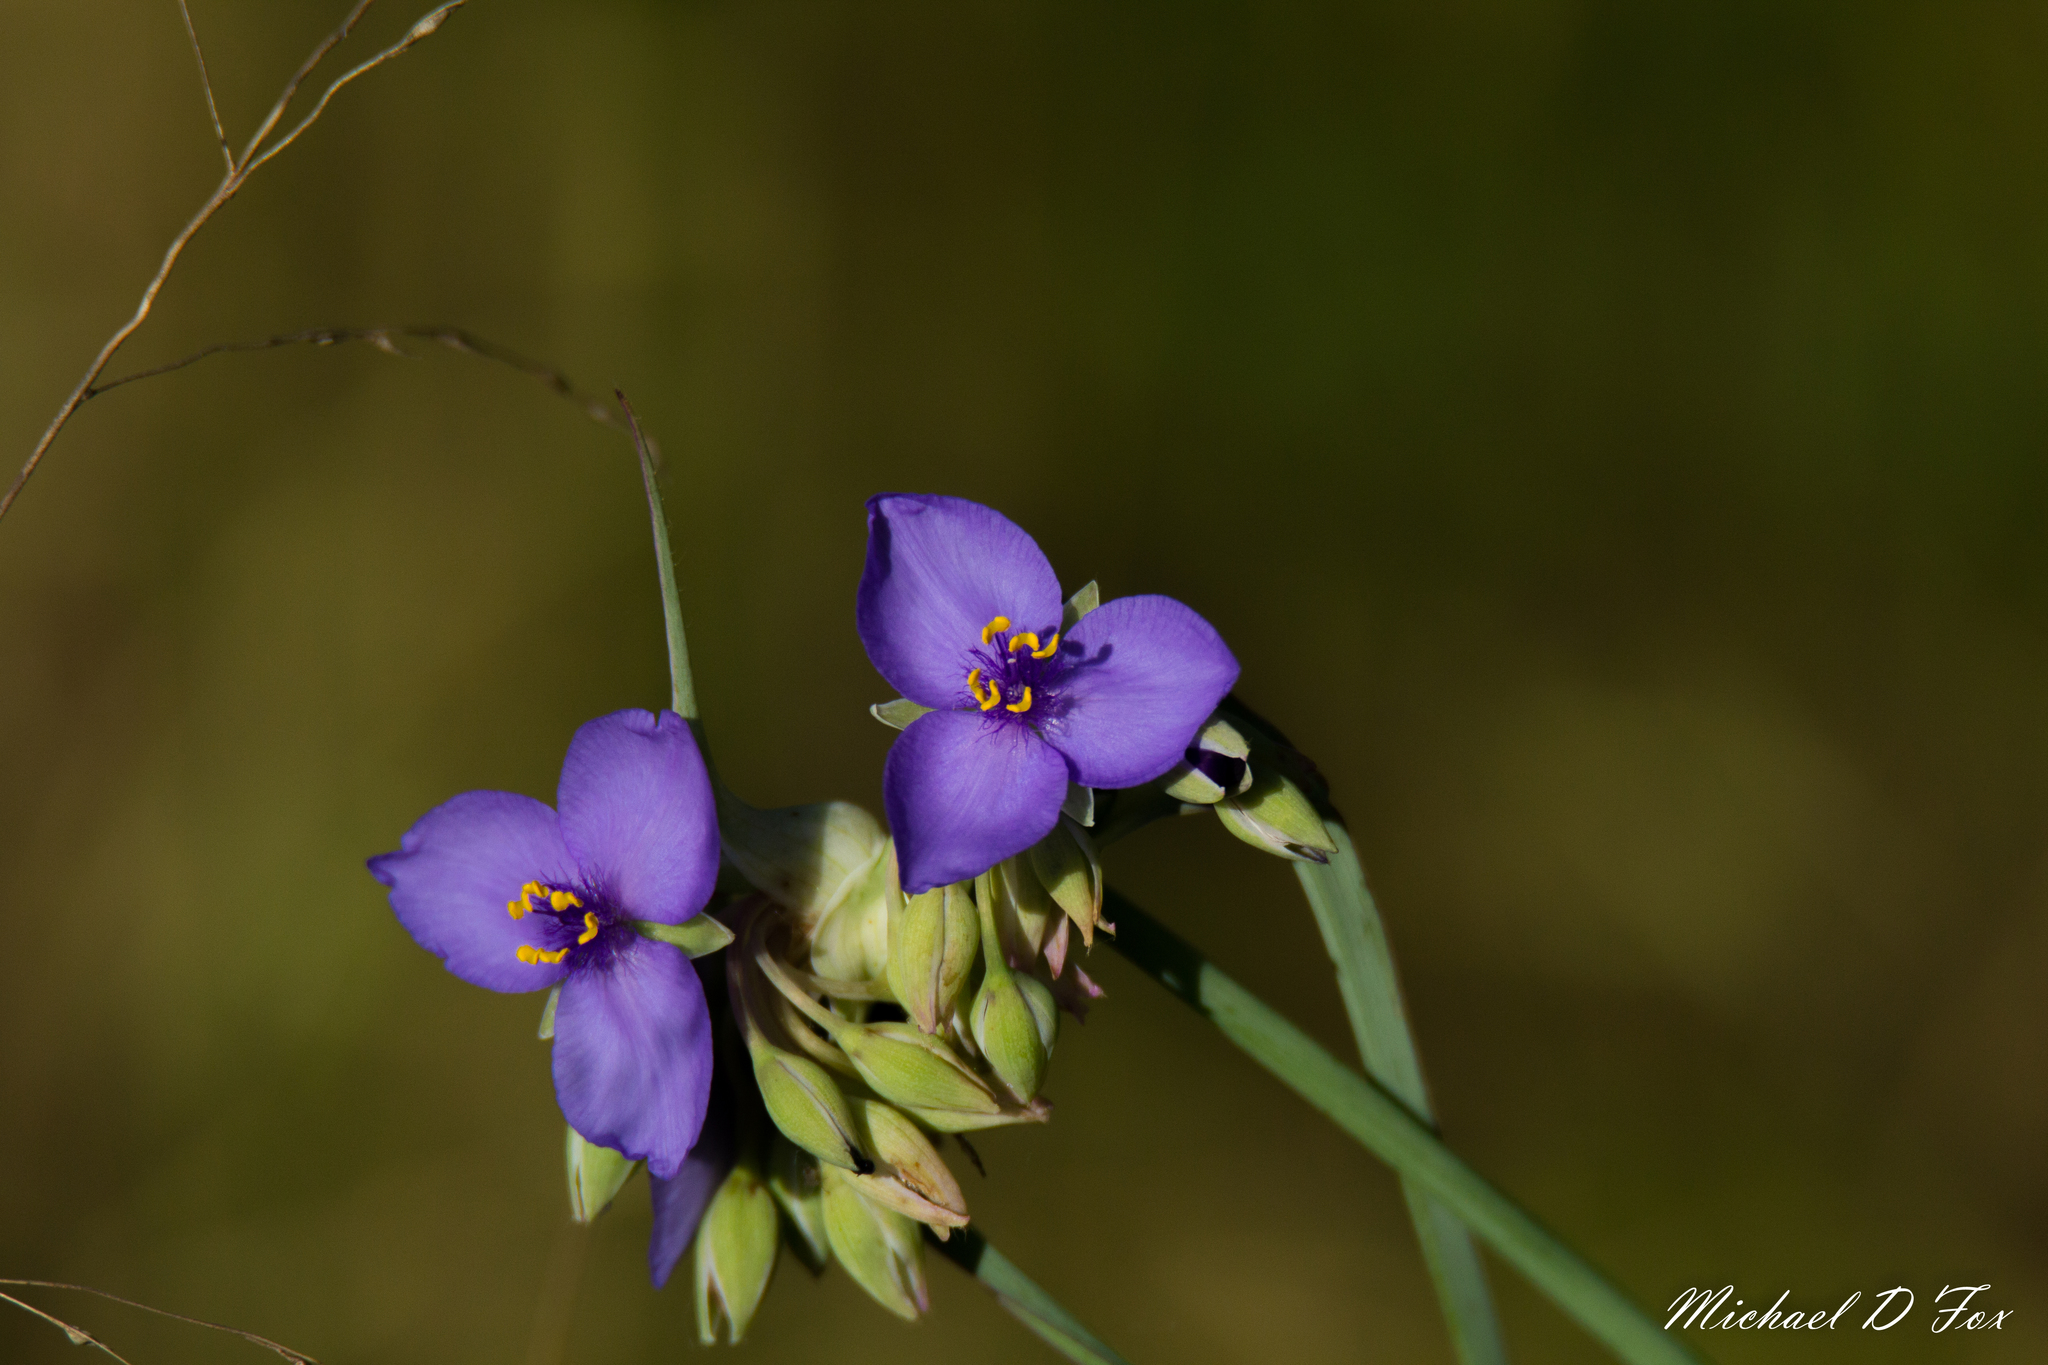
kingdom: Plantae
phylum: Tracheophyta
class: Liliopsida
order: Commelinales
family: Commelinaceae
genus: Tradescantia
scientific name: Tradescantia ohiensis
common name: Ohio spiderwort
